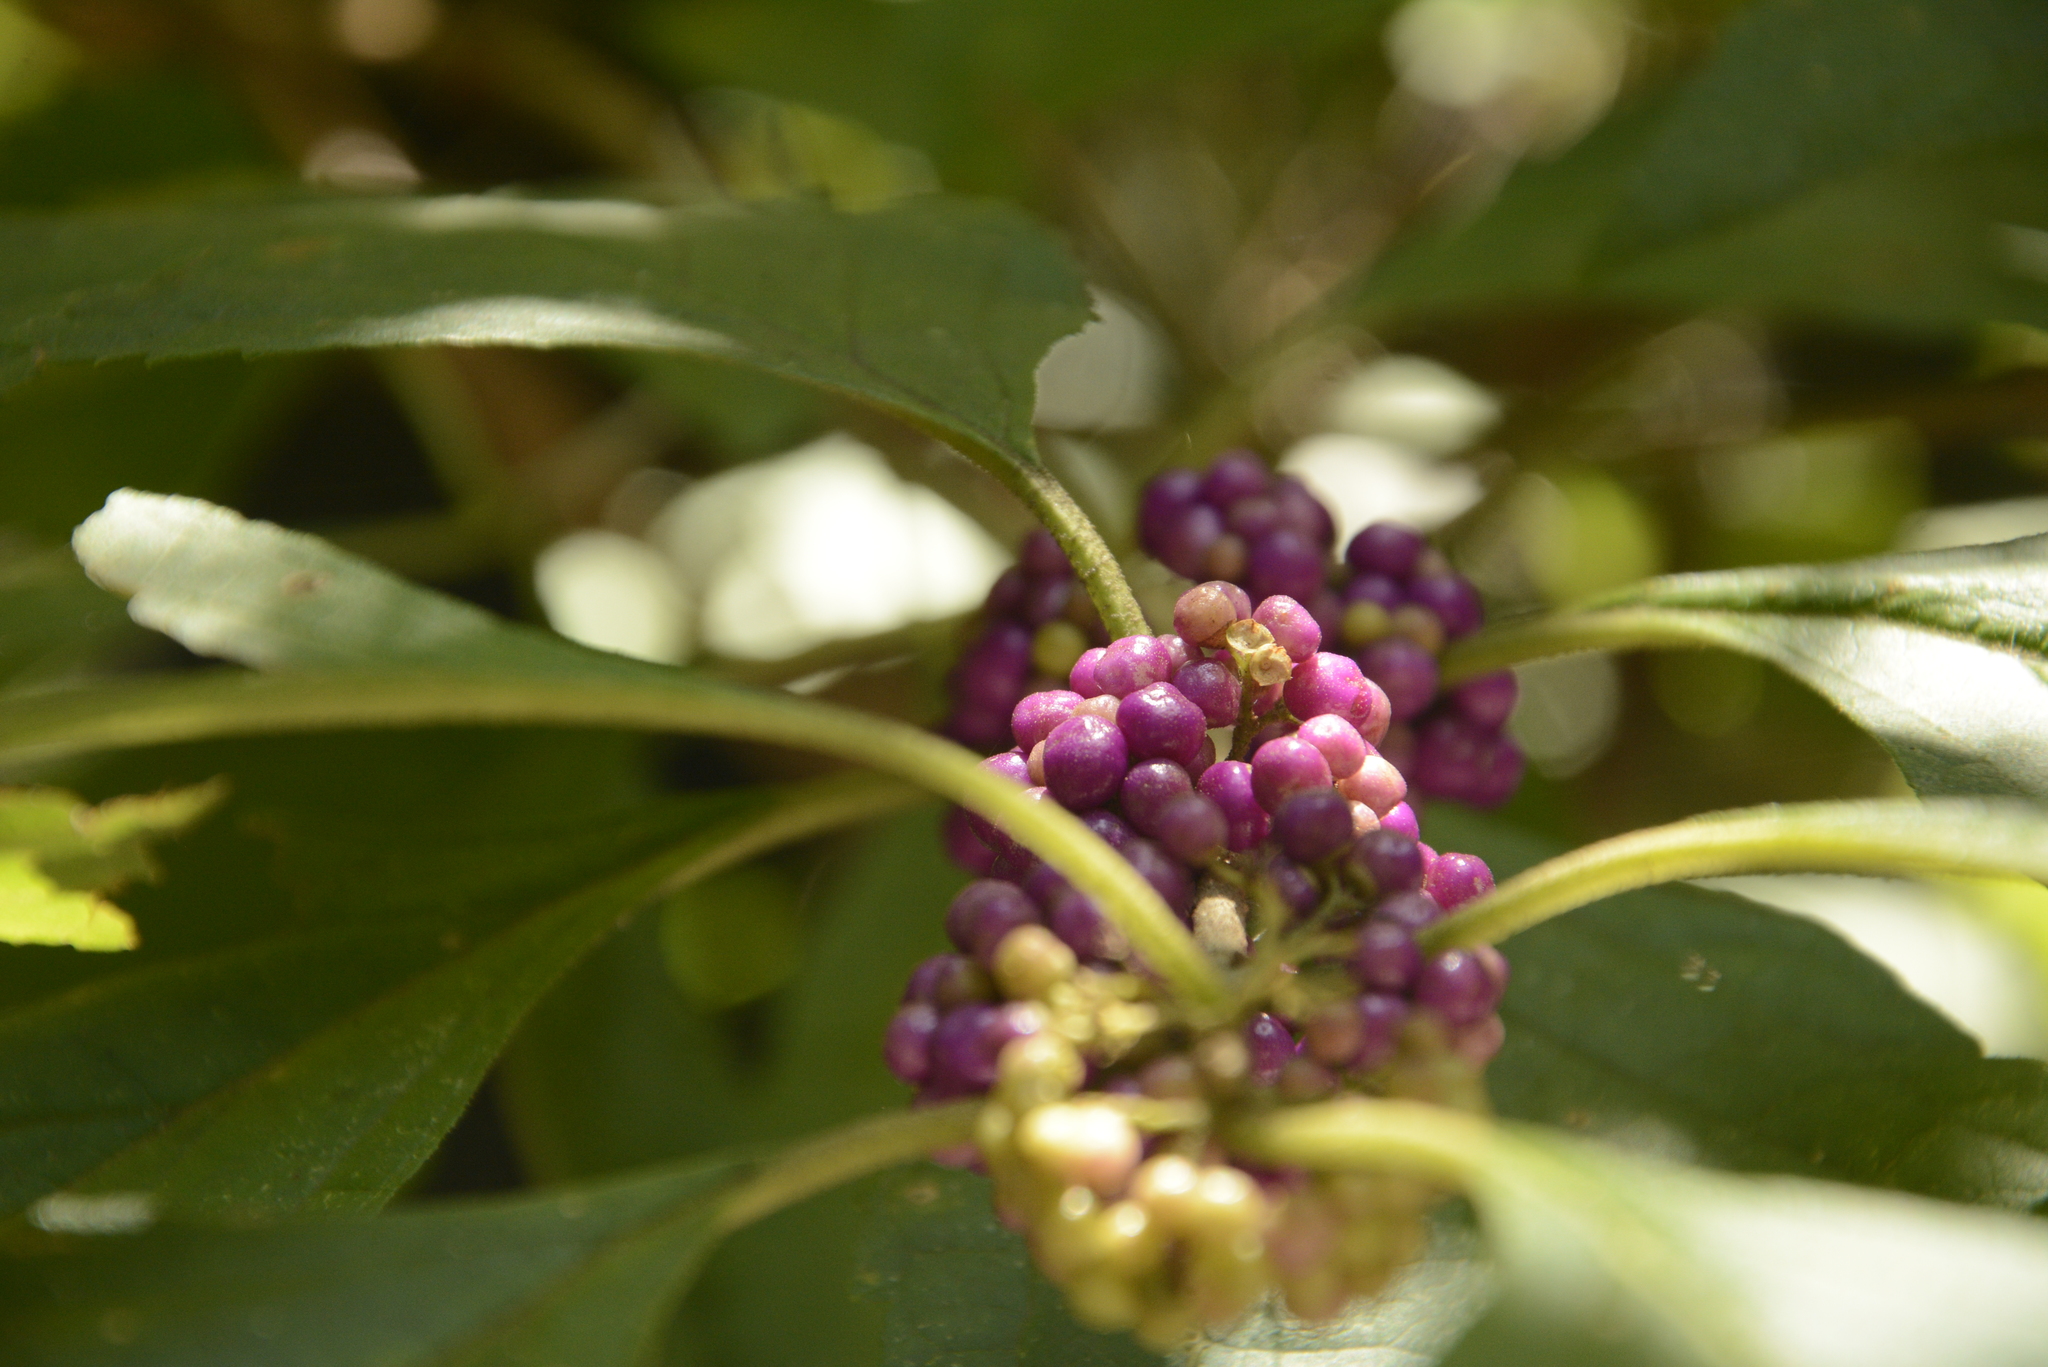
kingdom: Plantae
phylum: Tracheophyta
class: Magnoliopsida
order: Lamiales
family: Lamiaceae
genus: Callicarpa
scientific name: Callicarpa americana
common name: American beautyberry
